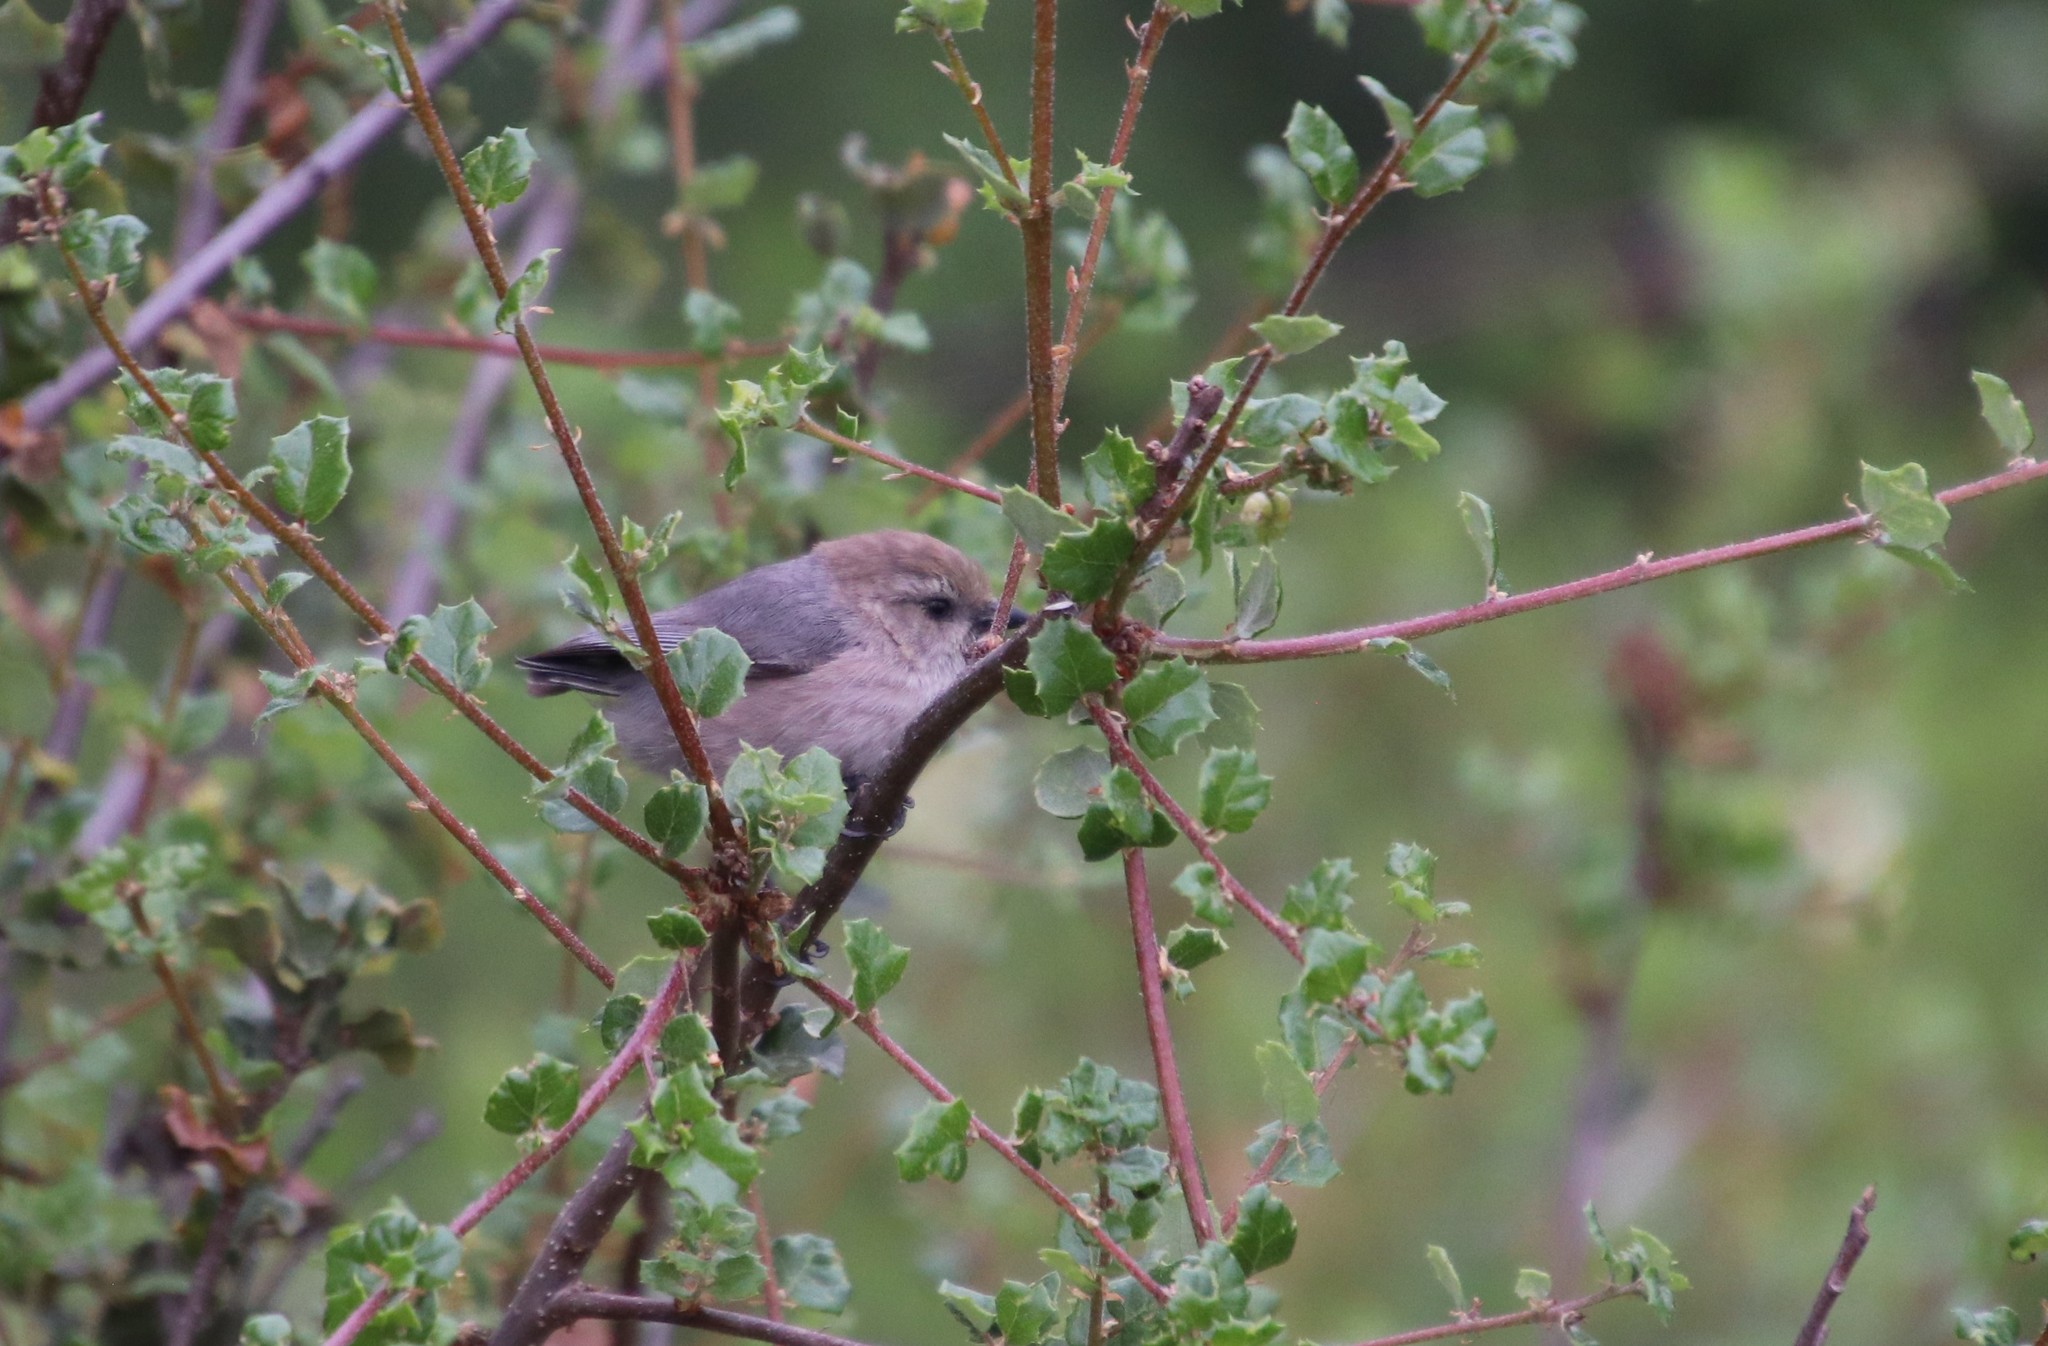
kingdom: Animalia
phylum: Chordata
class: Aves
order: Passeriformes
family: Aegithalidae
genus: Psaltriparus
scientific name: Psaltriparus minimus
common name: American bushtit
